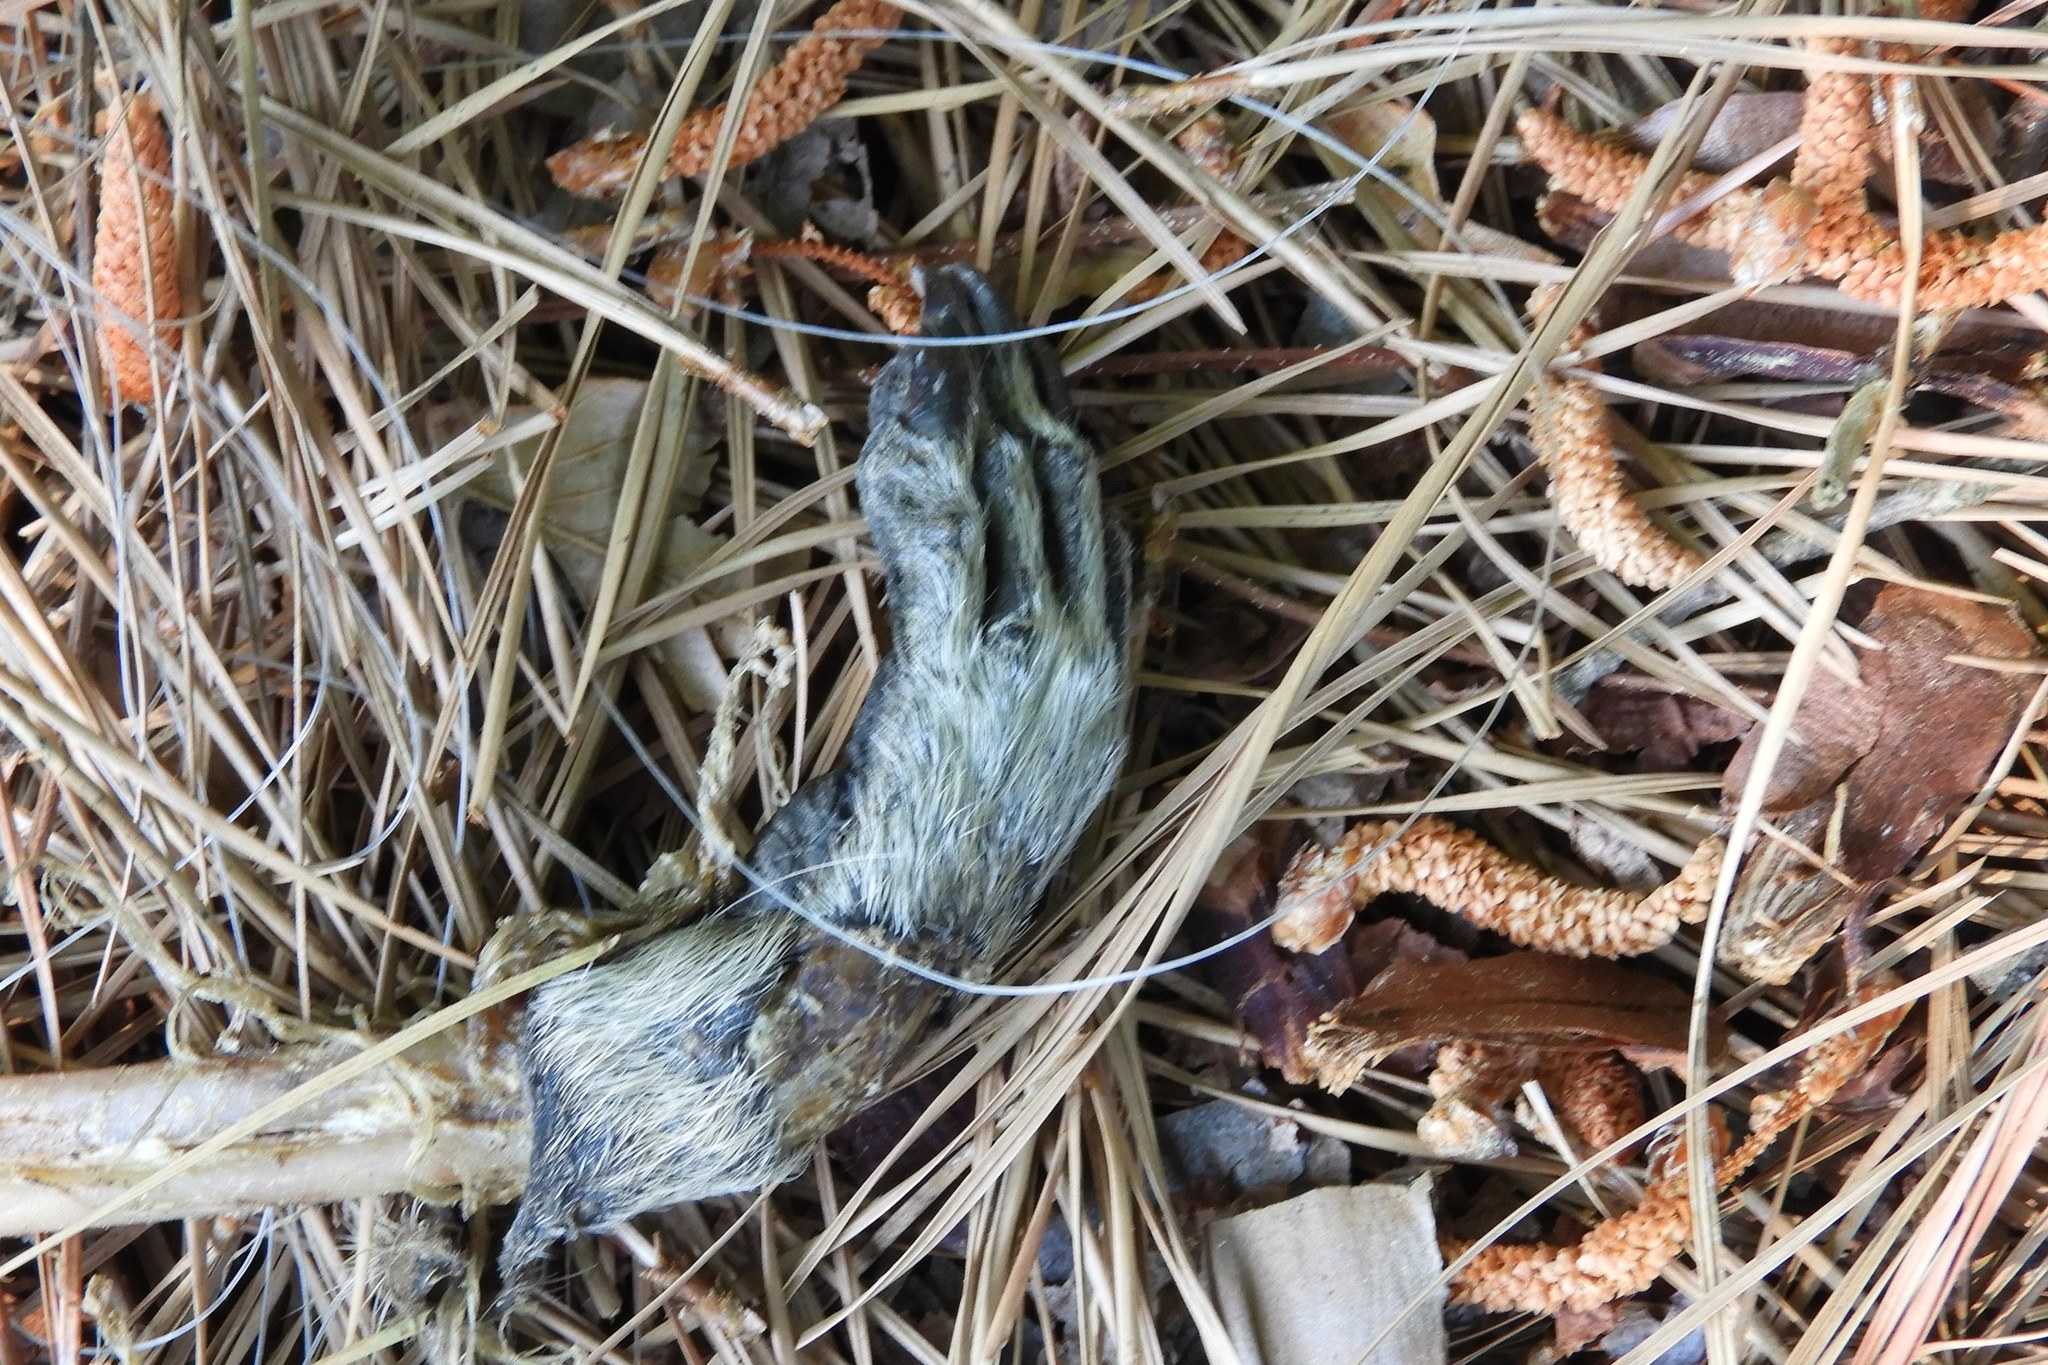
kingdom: Animalia
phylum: Chordata
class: Mammalia
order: Carnivora
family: Procyonidae
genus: Procyon
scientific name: Procyon lotor
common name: Raccoon
